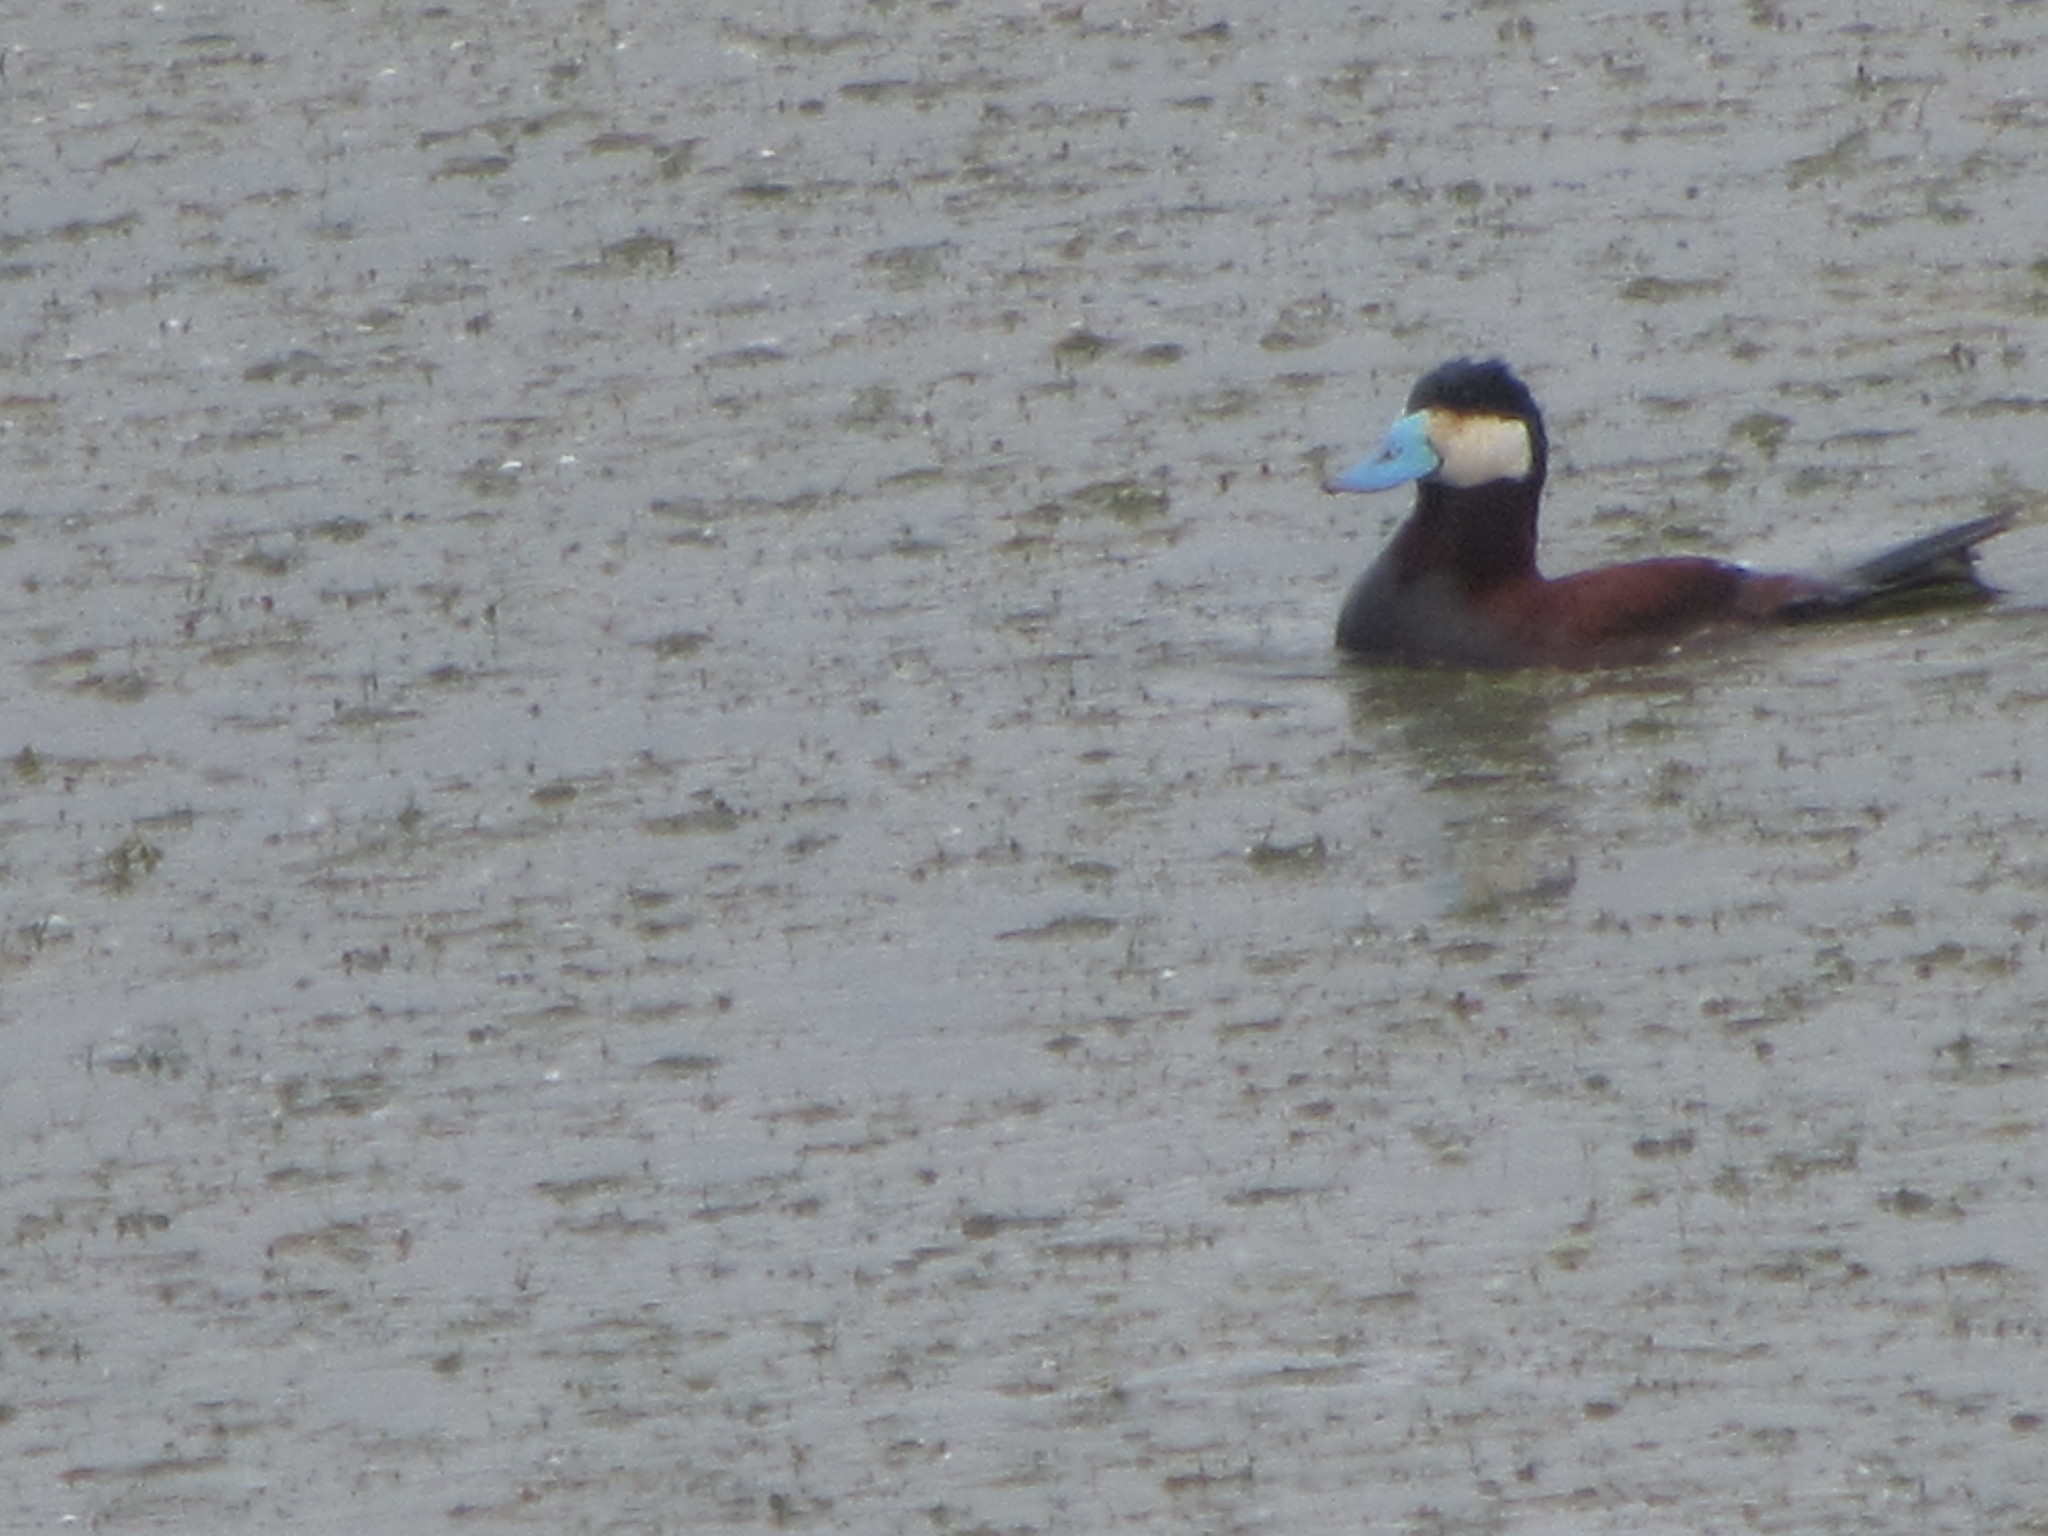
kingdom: Animalia
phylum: Chordata
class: Aves
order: Anseriformes
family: Anatidae
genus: Oxyura
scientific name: Oxyura jamaicensis
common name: Ruddy duck
